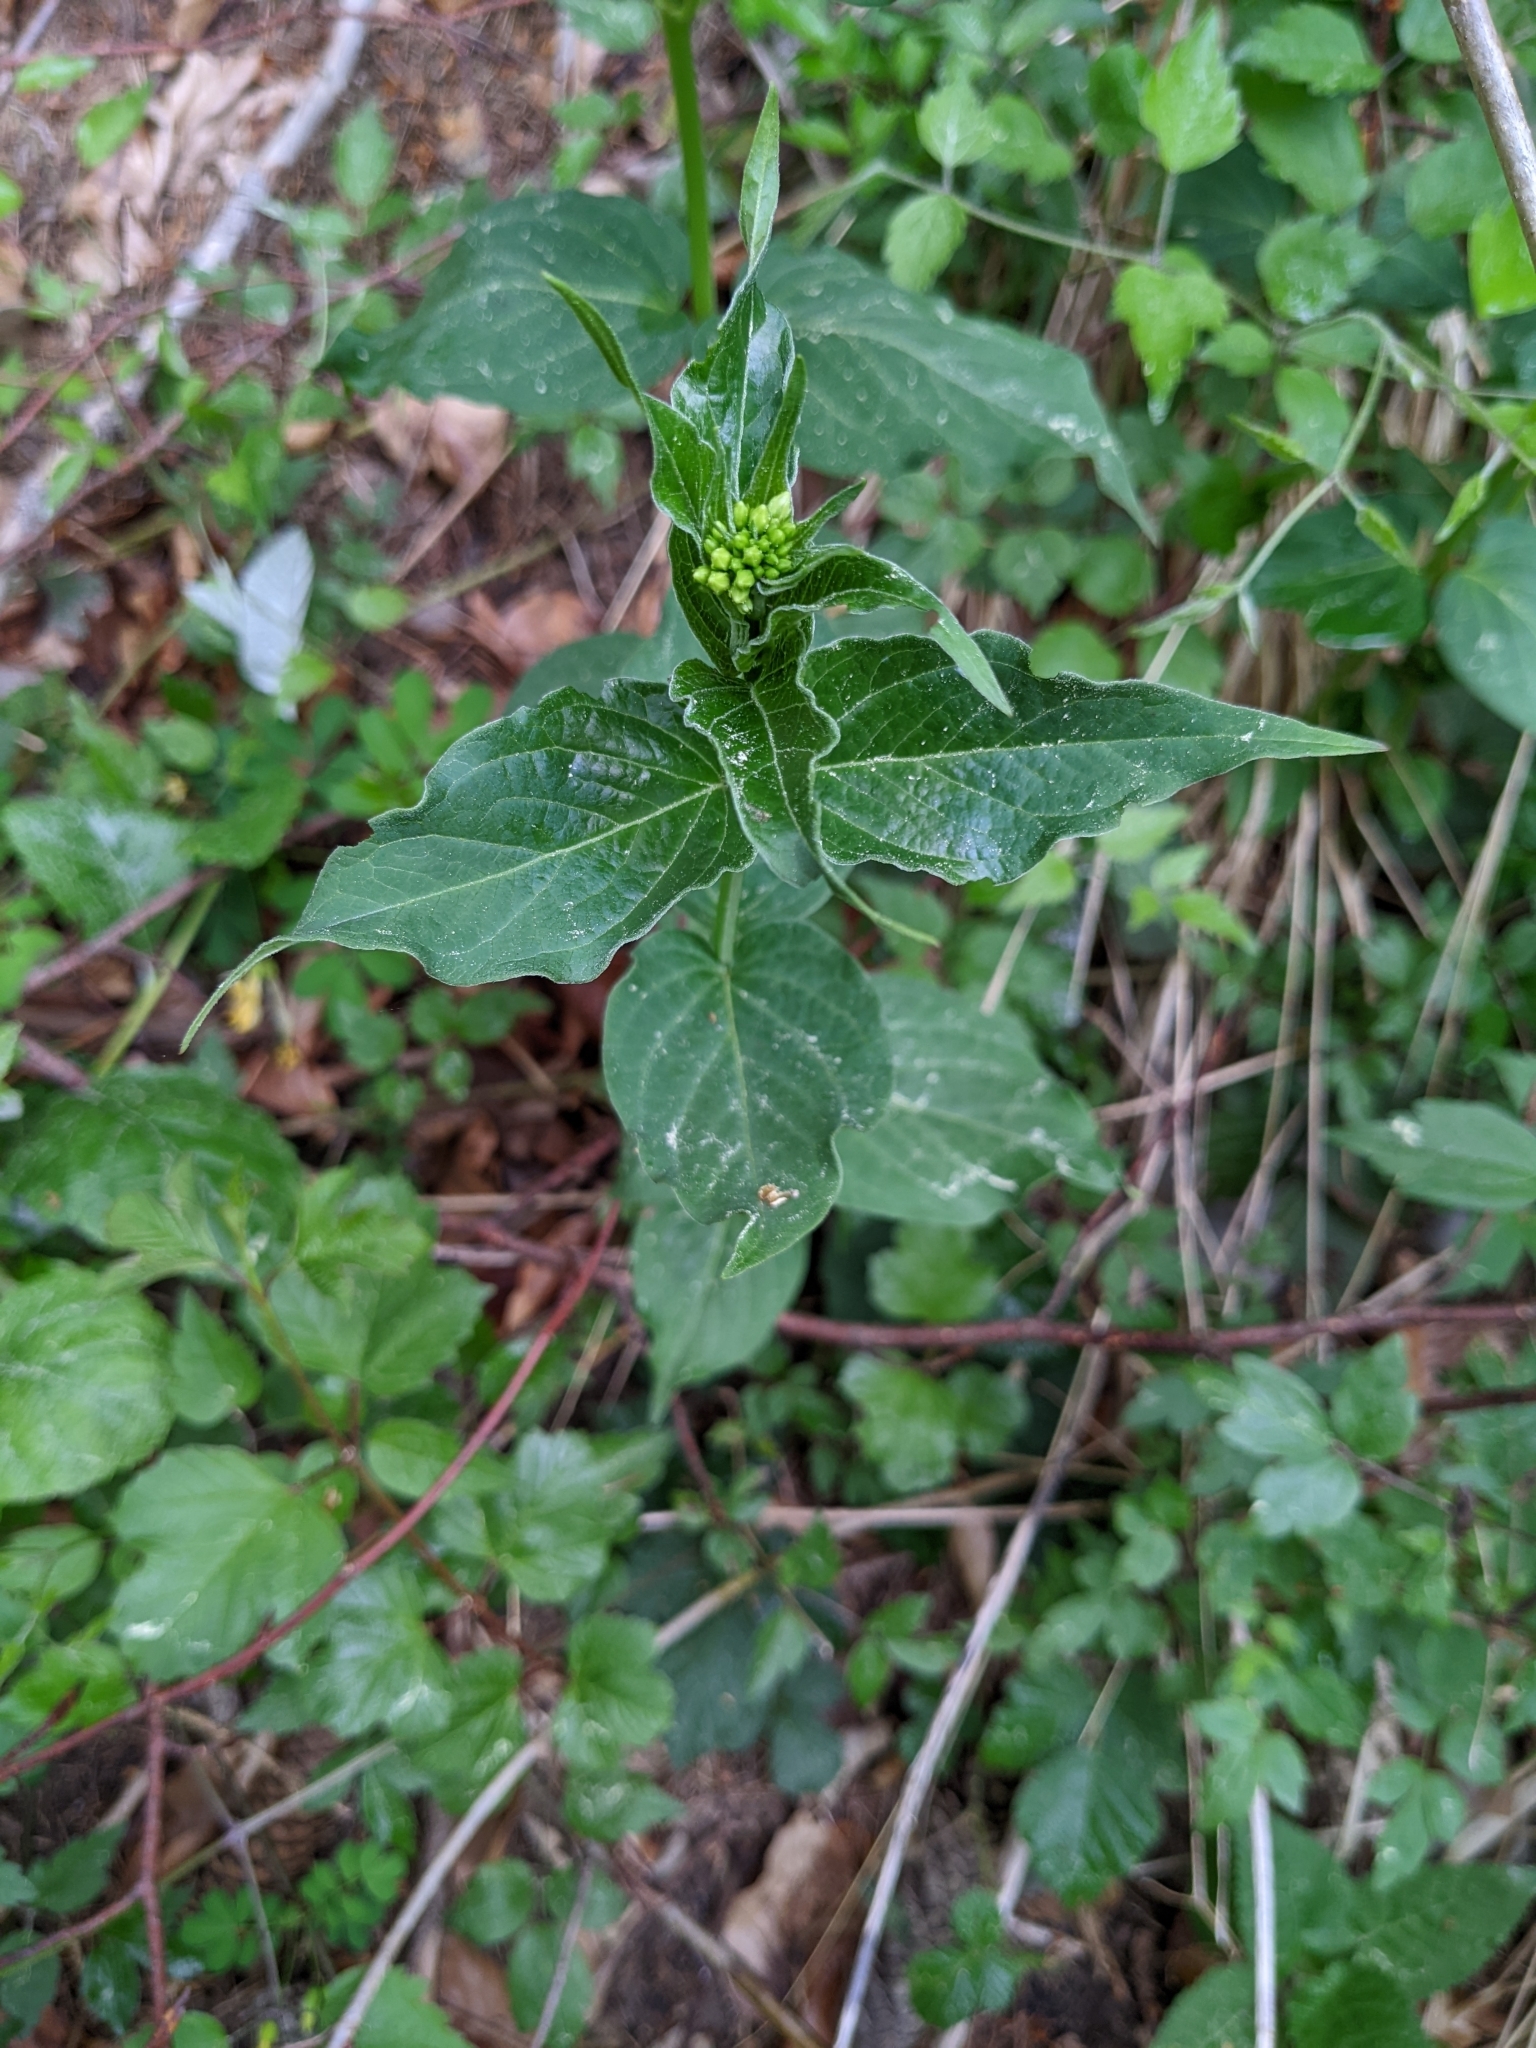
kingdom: Plantae
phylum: Tracheophyta
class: Magnoliopsida
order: Gentianales
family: Apocynaceae
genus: Vincetoxicum
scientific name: Vincetoxicum hirundinaria
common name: White swallowwort
